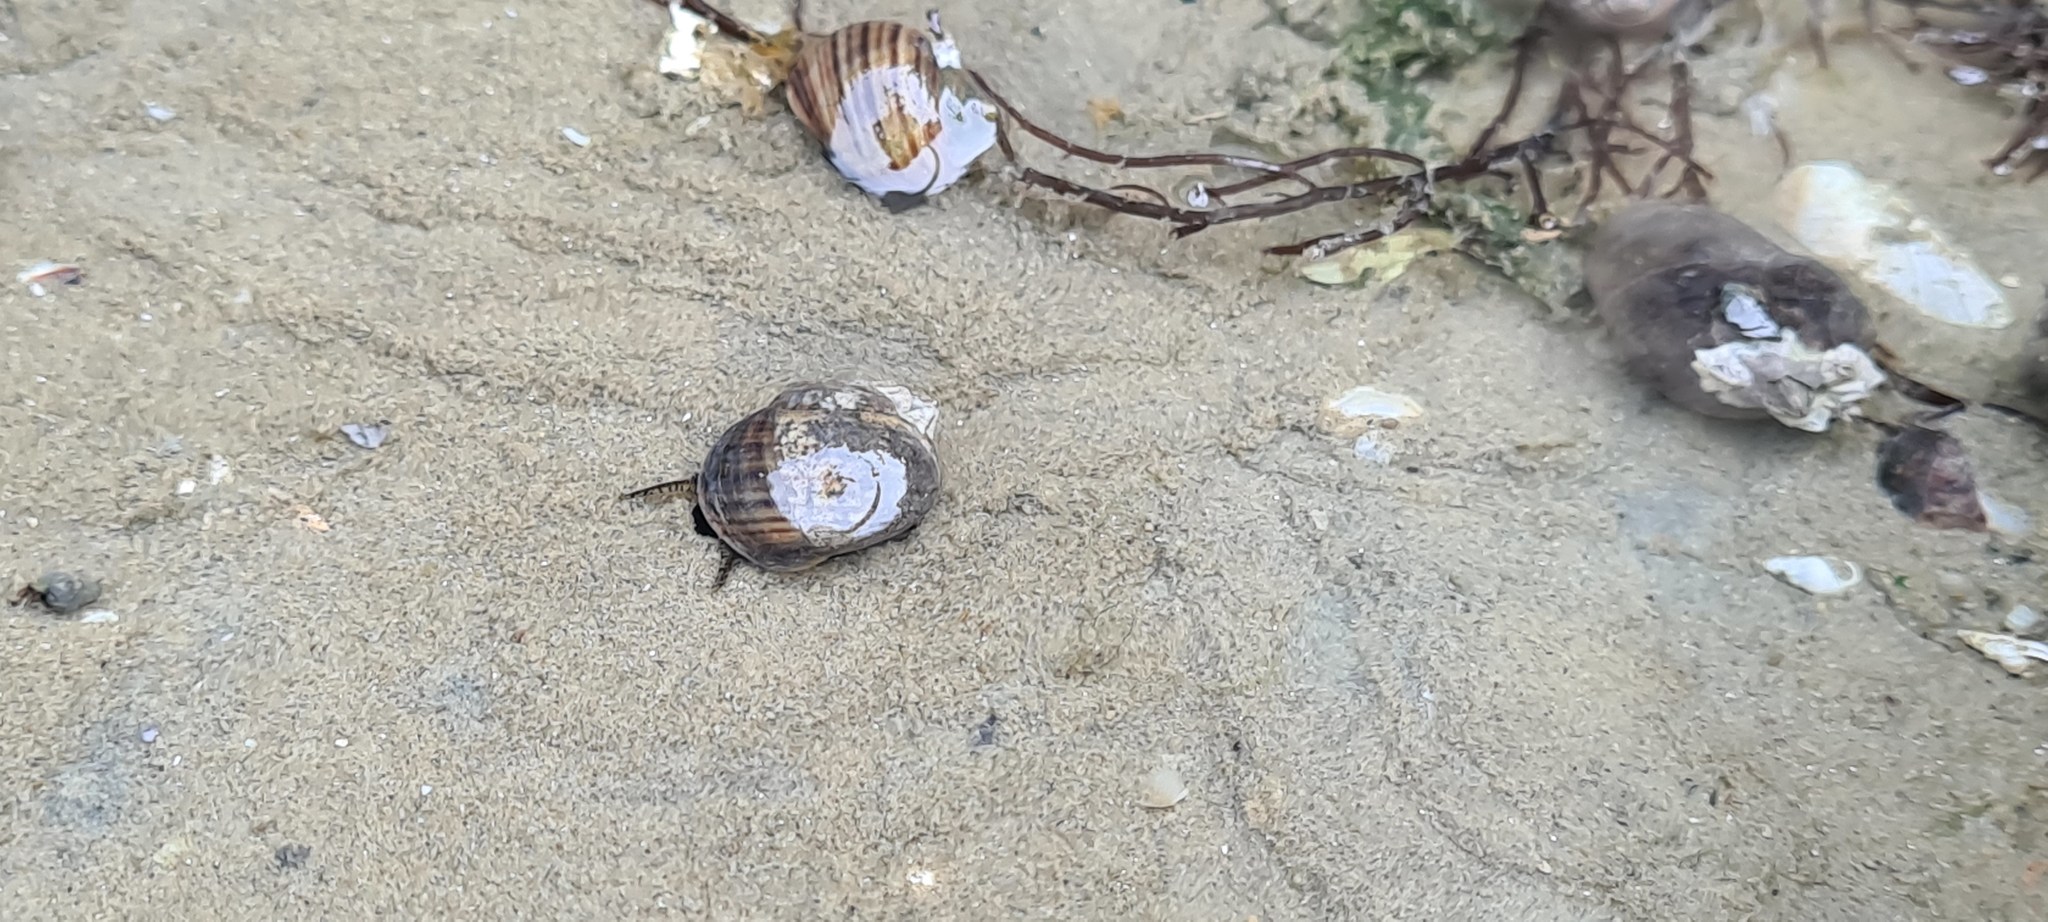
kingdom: Animalia
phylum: Mollusca
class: Gastropoda
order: Littorinimorpha
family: Littorinidae
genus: Littorina
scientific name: Littorina littorea
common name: Common periwinkle
